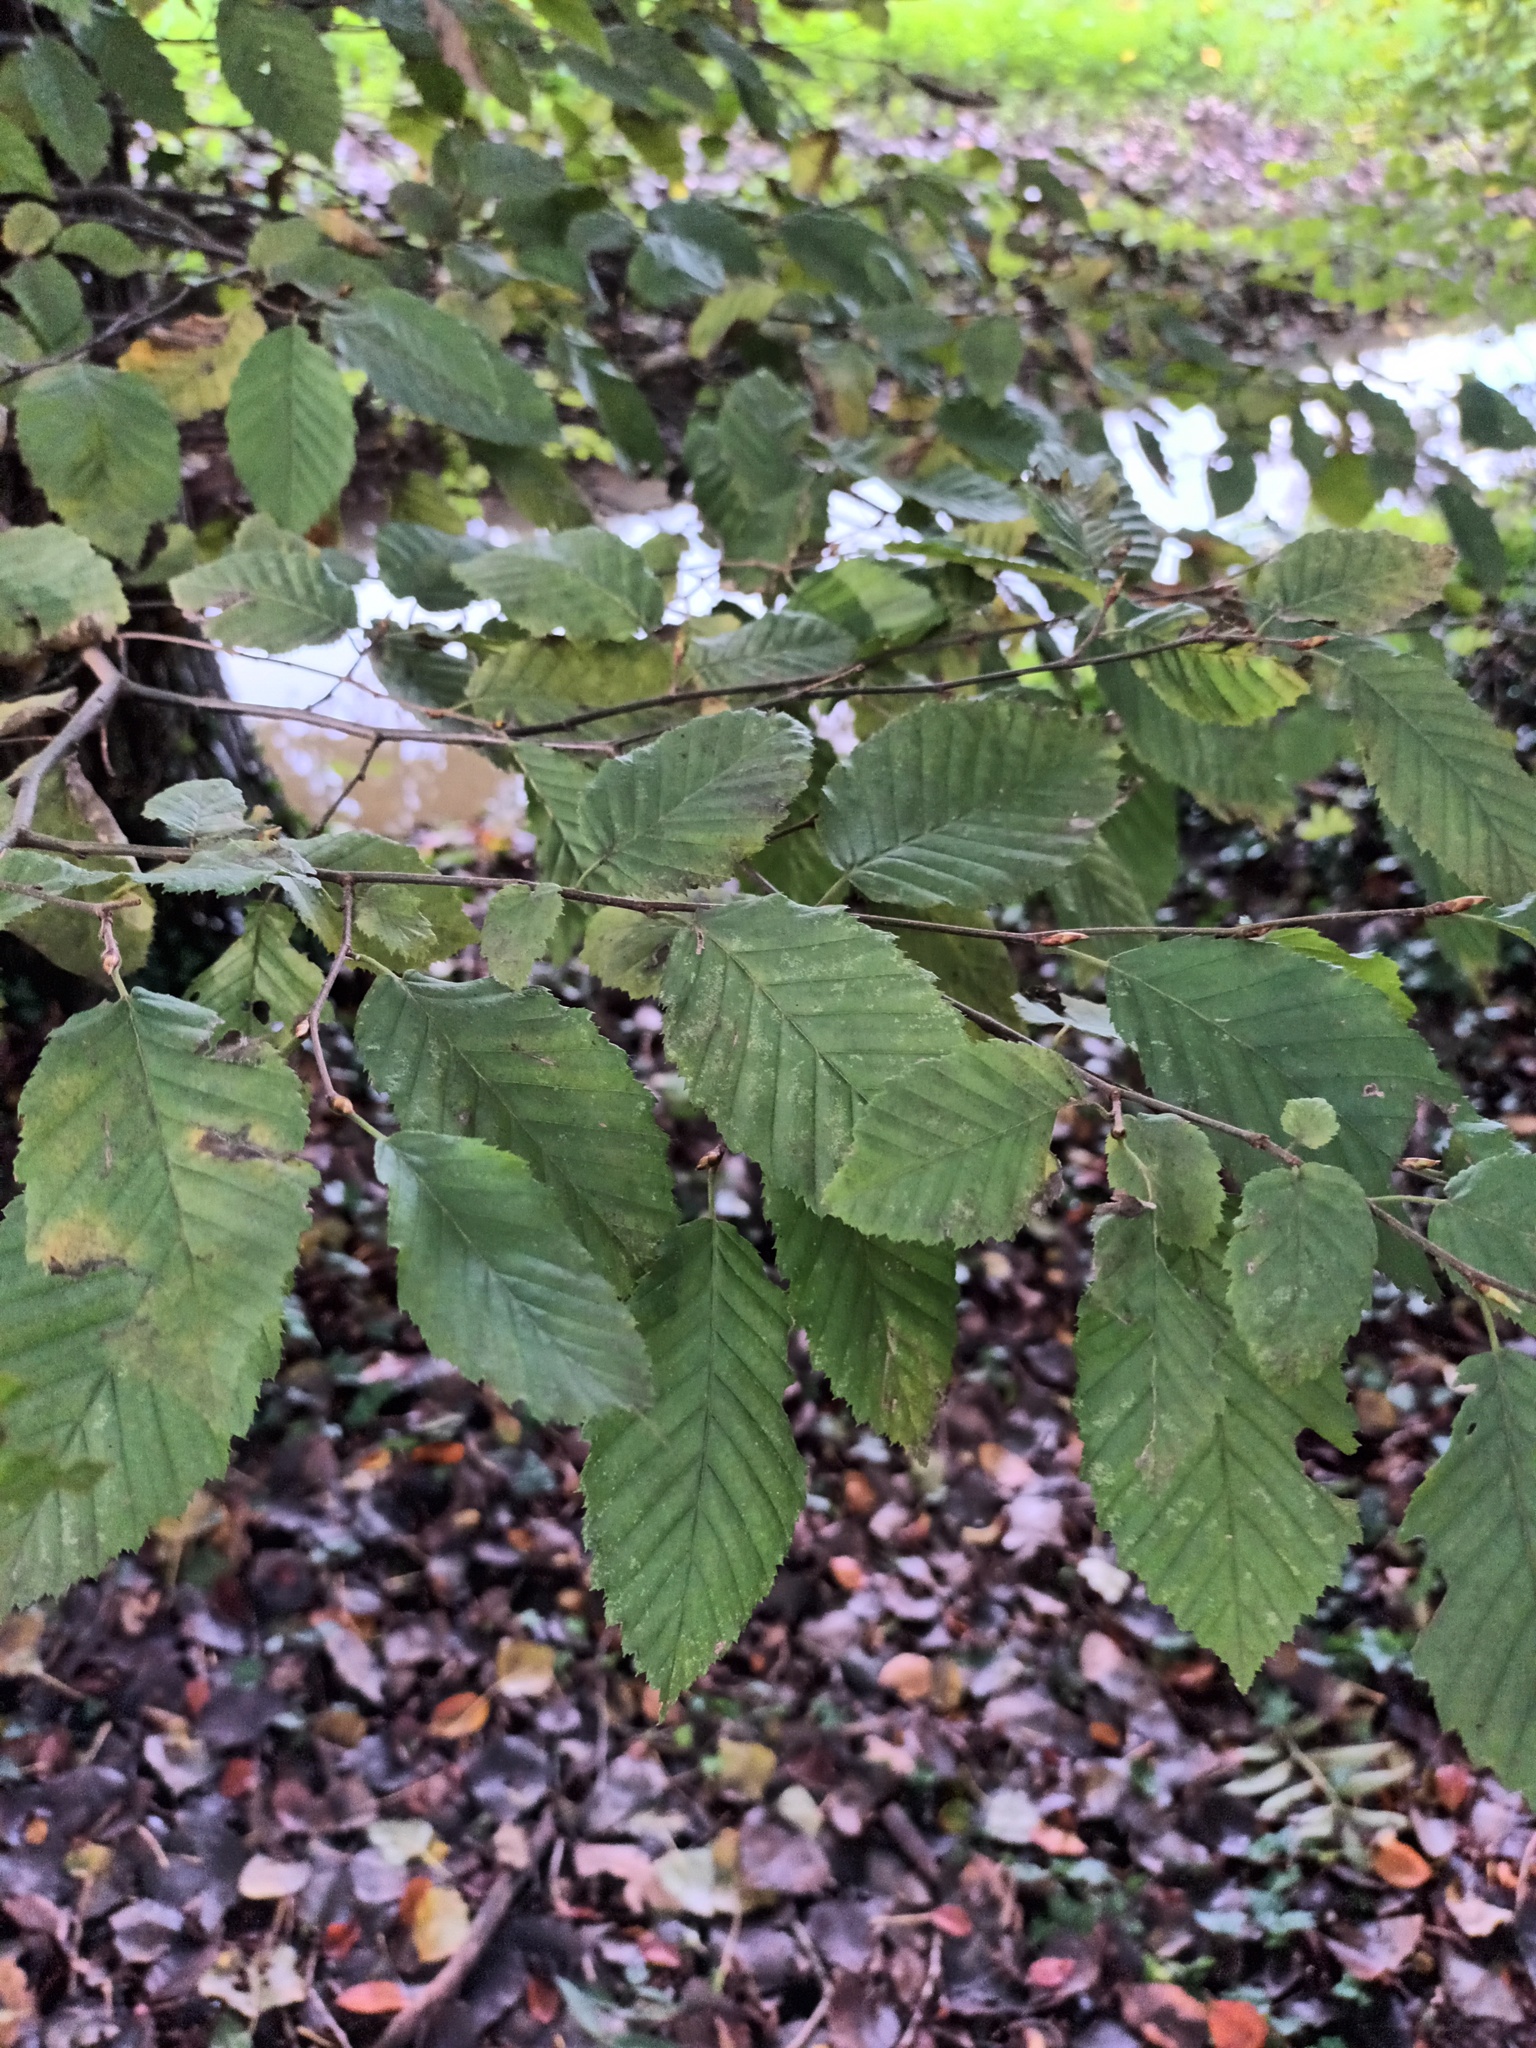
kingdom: Plantae
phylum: Tracheophyta
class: Magnoliopsida
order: Fagales
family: Betulaceae
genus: Carpinus
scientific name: Carpinus betulus
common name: Hornbeam
